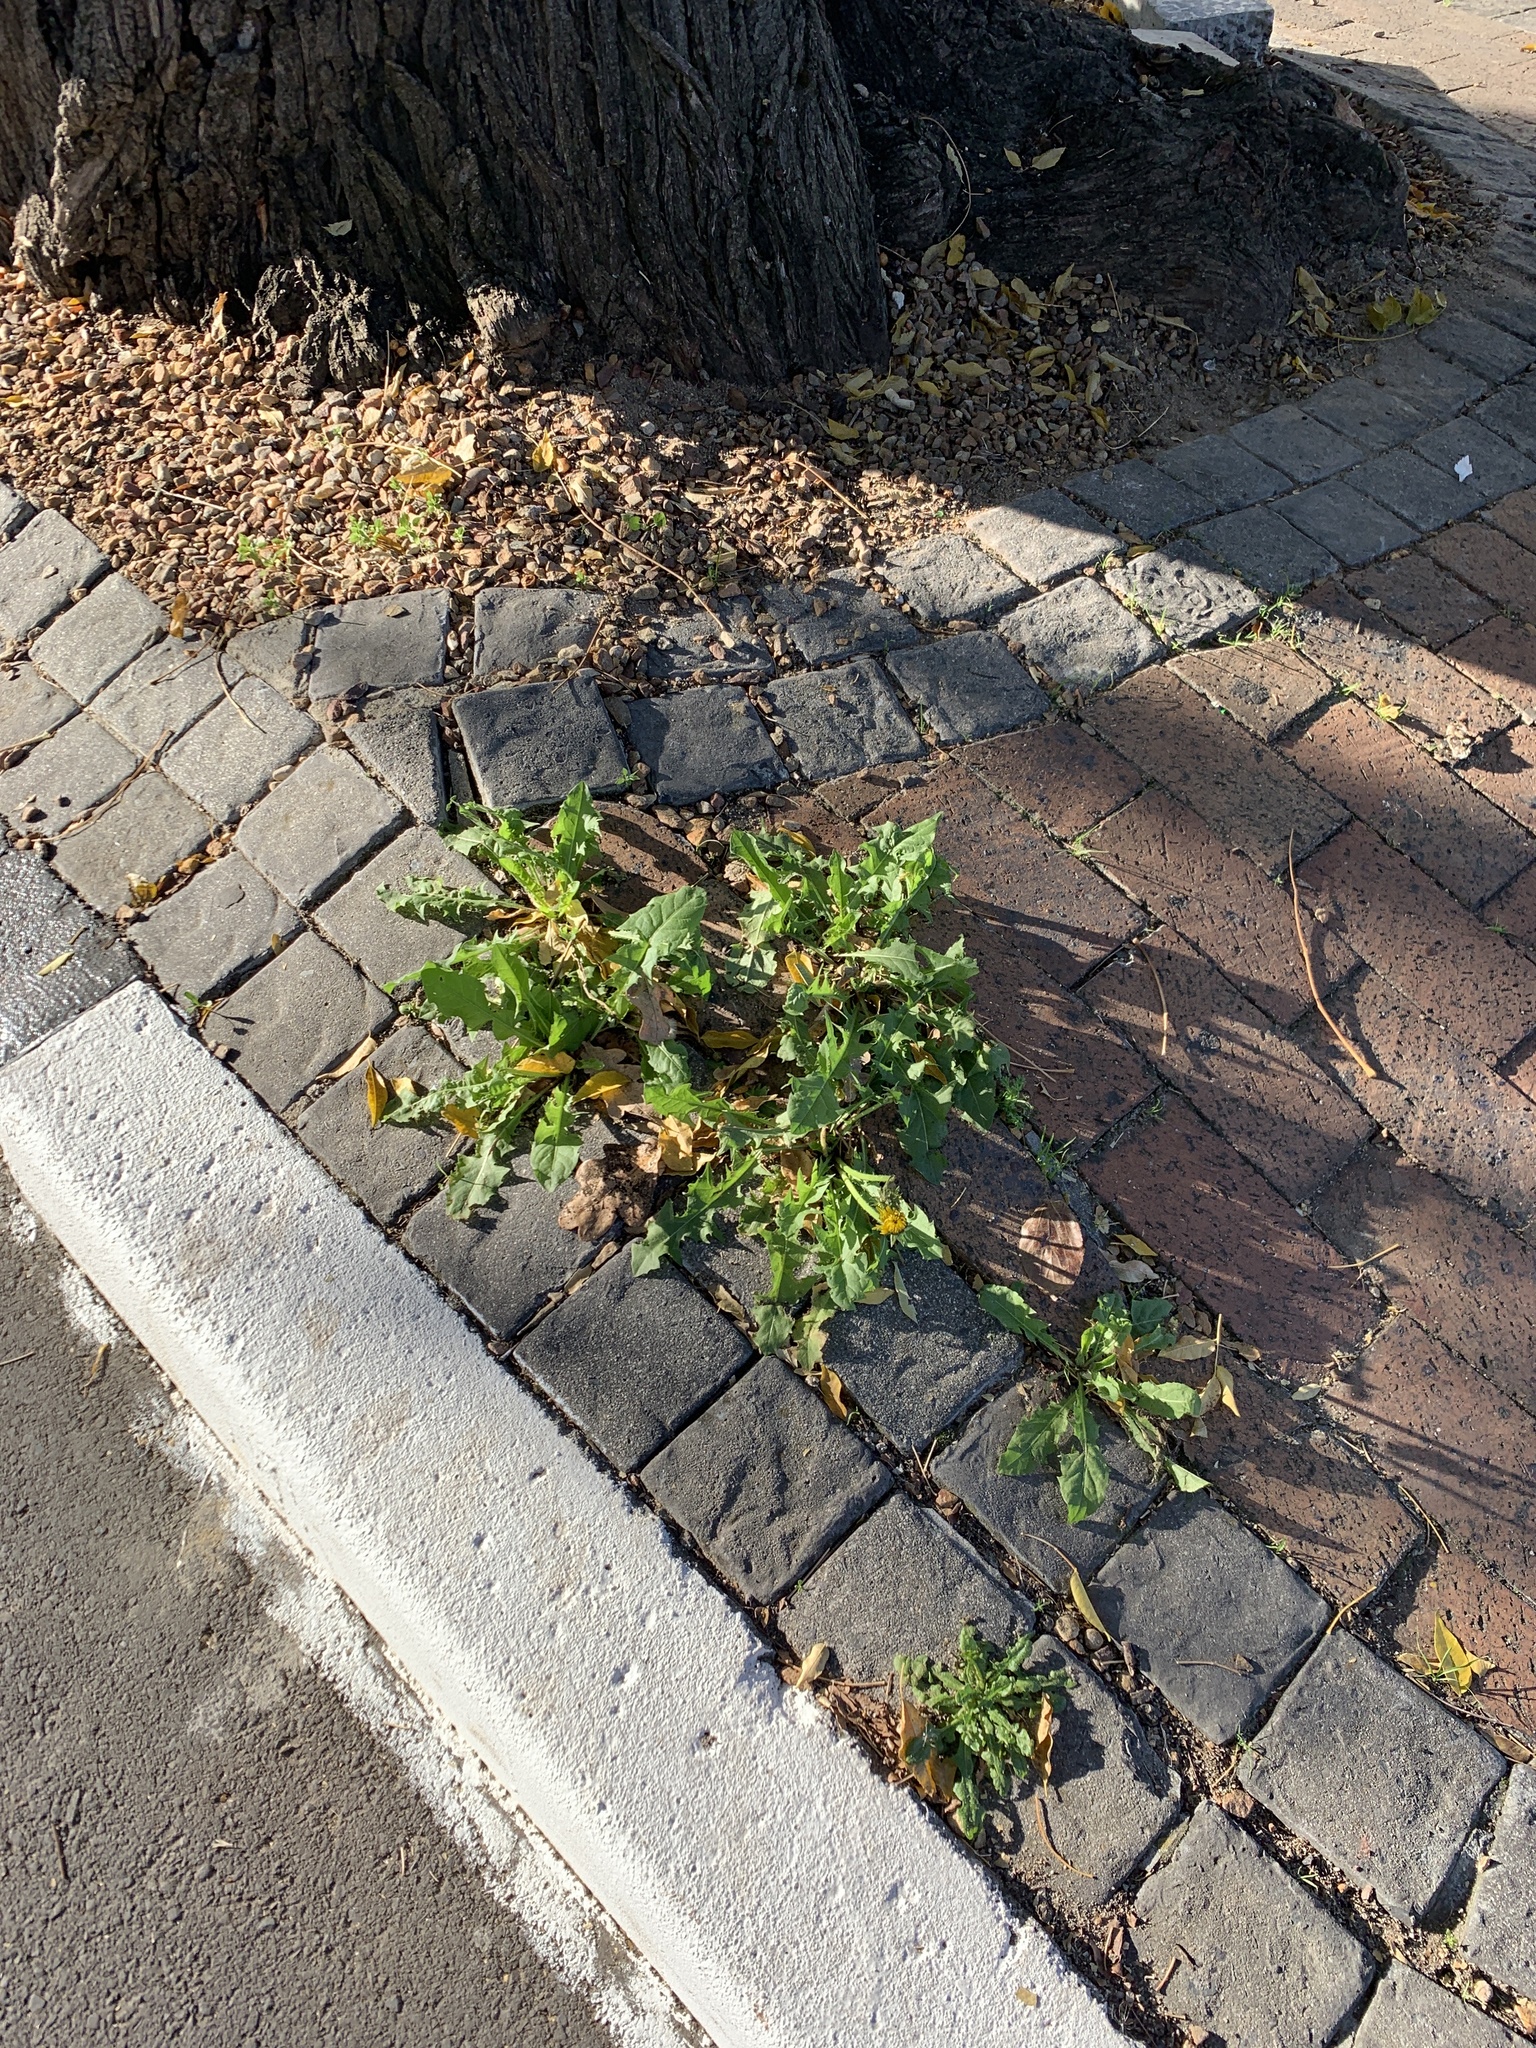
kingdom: Plantae
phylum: Tracheophyta
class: Magnoliopsida
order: Asterales
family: Asteraceae
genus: Taraxacum
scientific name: Taraxacum officinale
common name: Common dandelion
